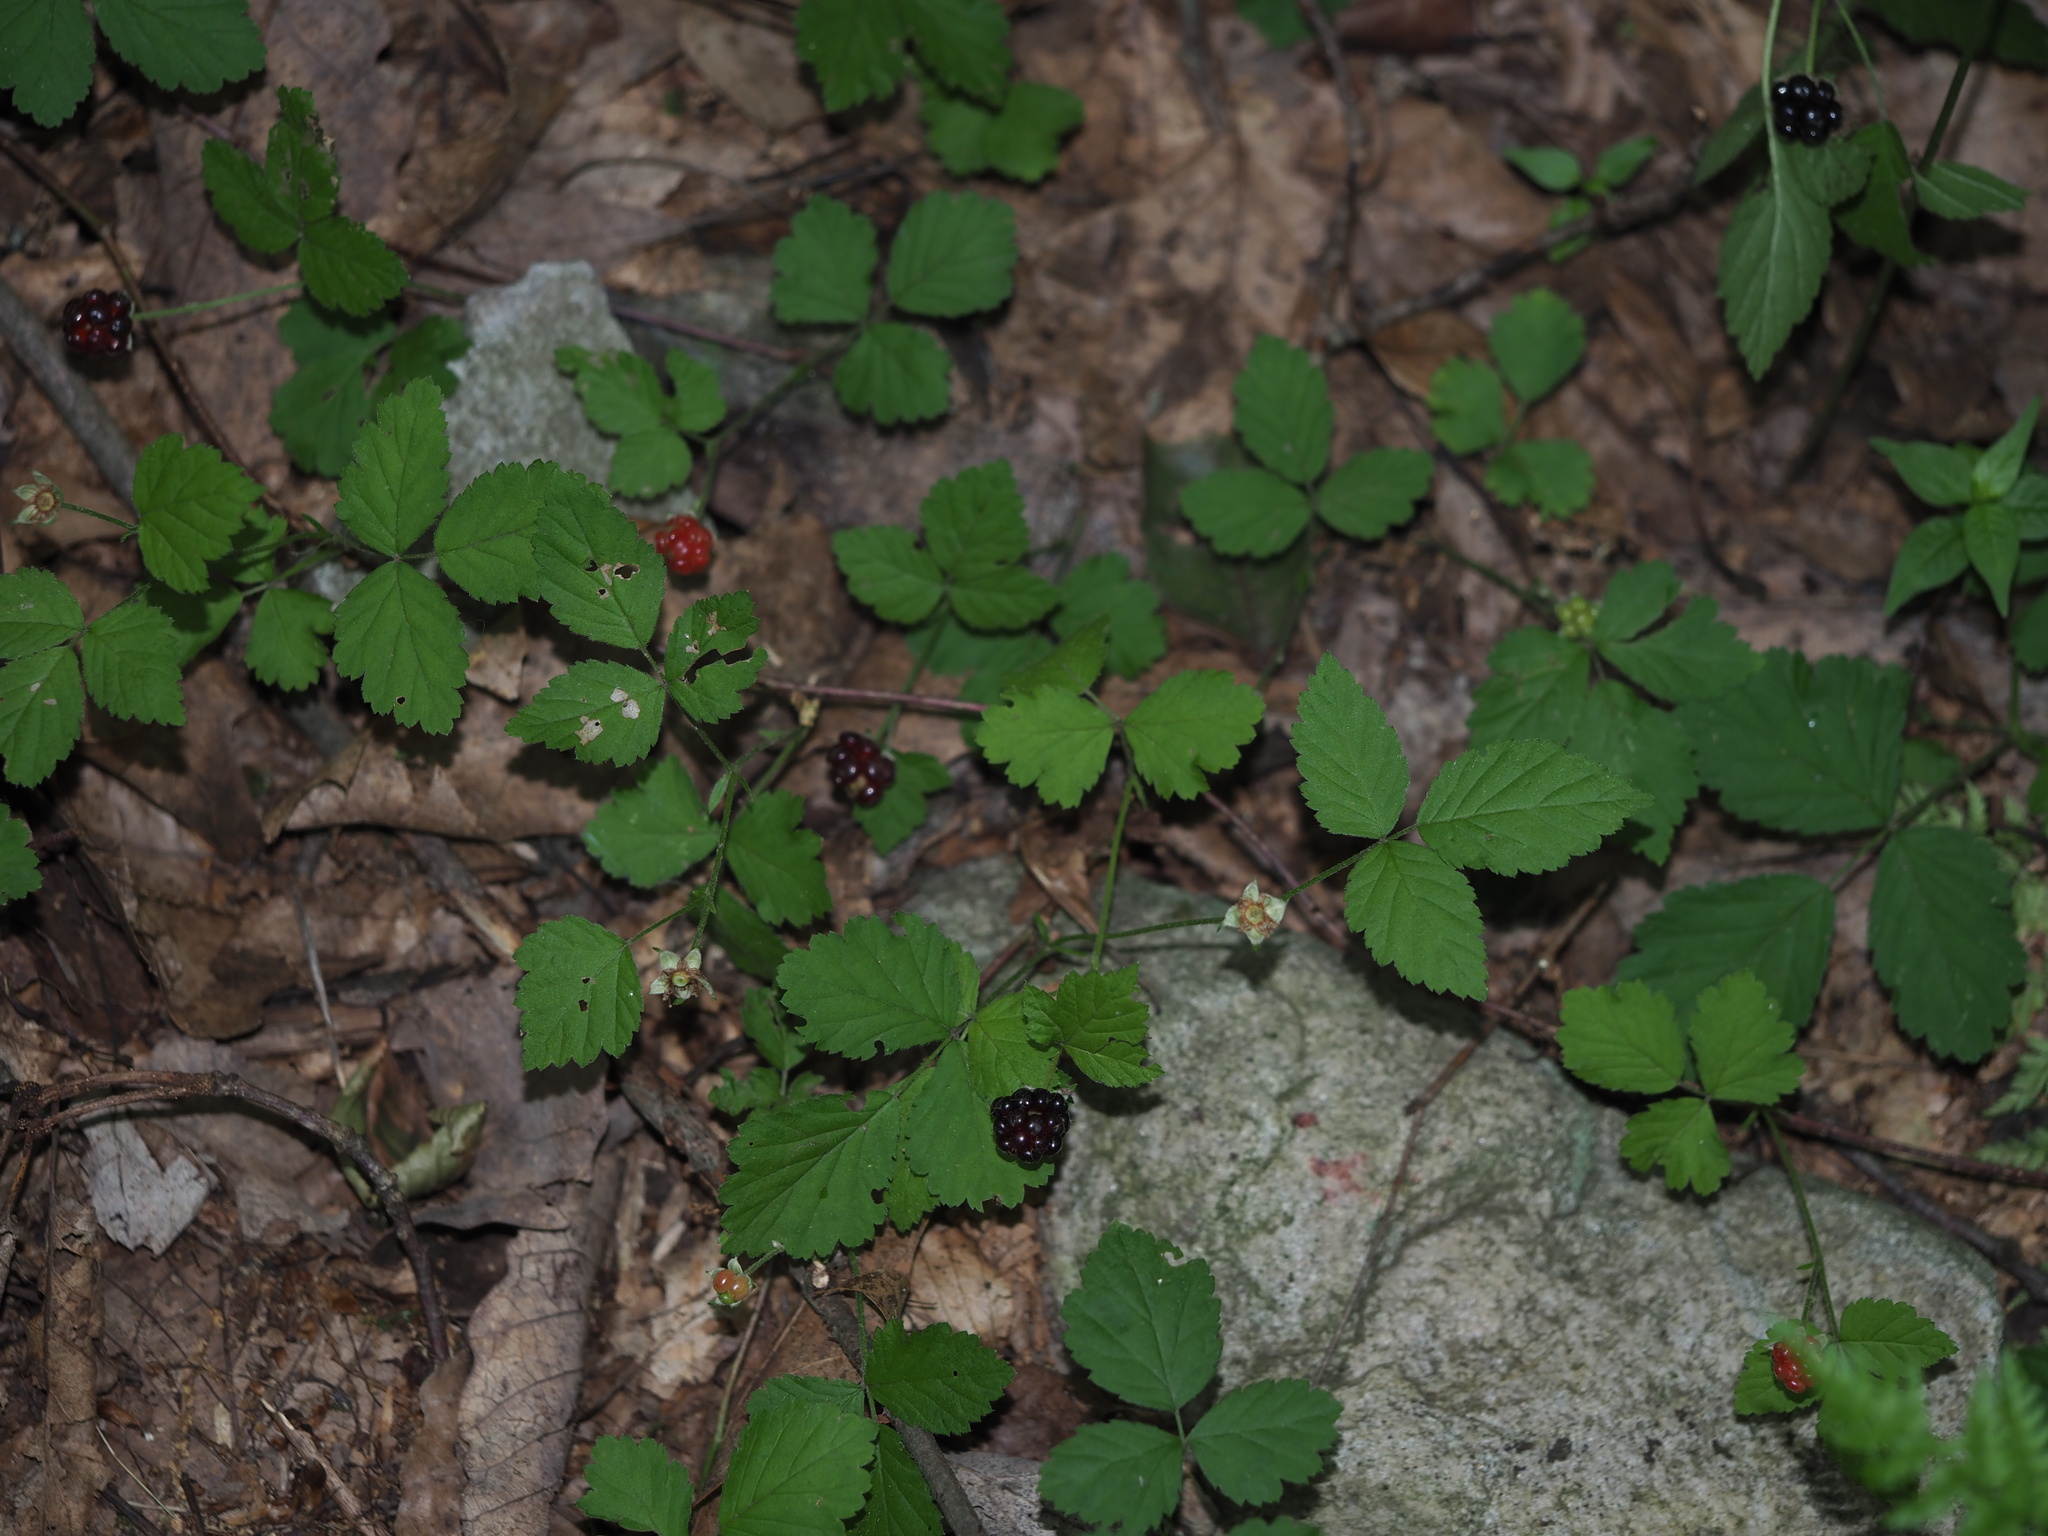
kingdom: Plantae
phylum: Tracheophyta
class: Magnoliopsida
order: Rosales
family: Rosaceae
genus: Rubus
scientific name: Rubus flagellaris
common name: American dewberry
